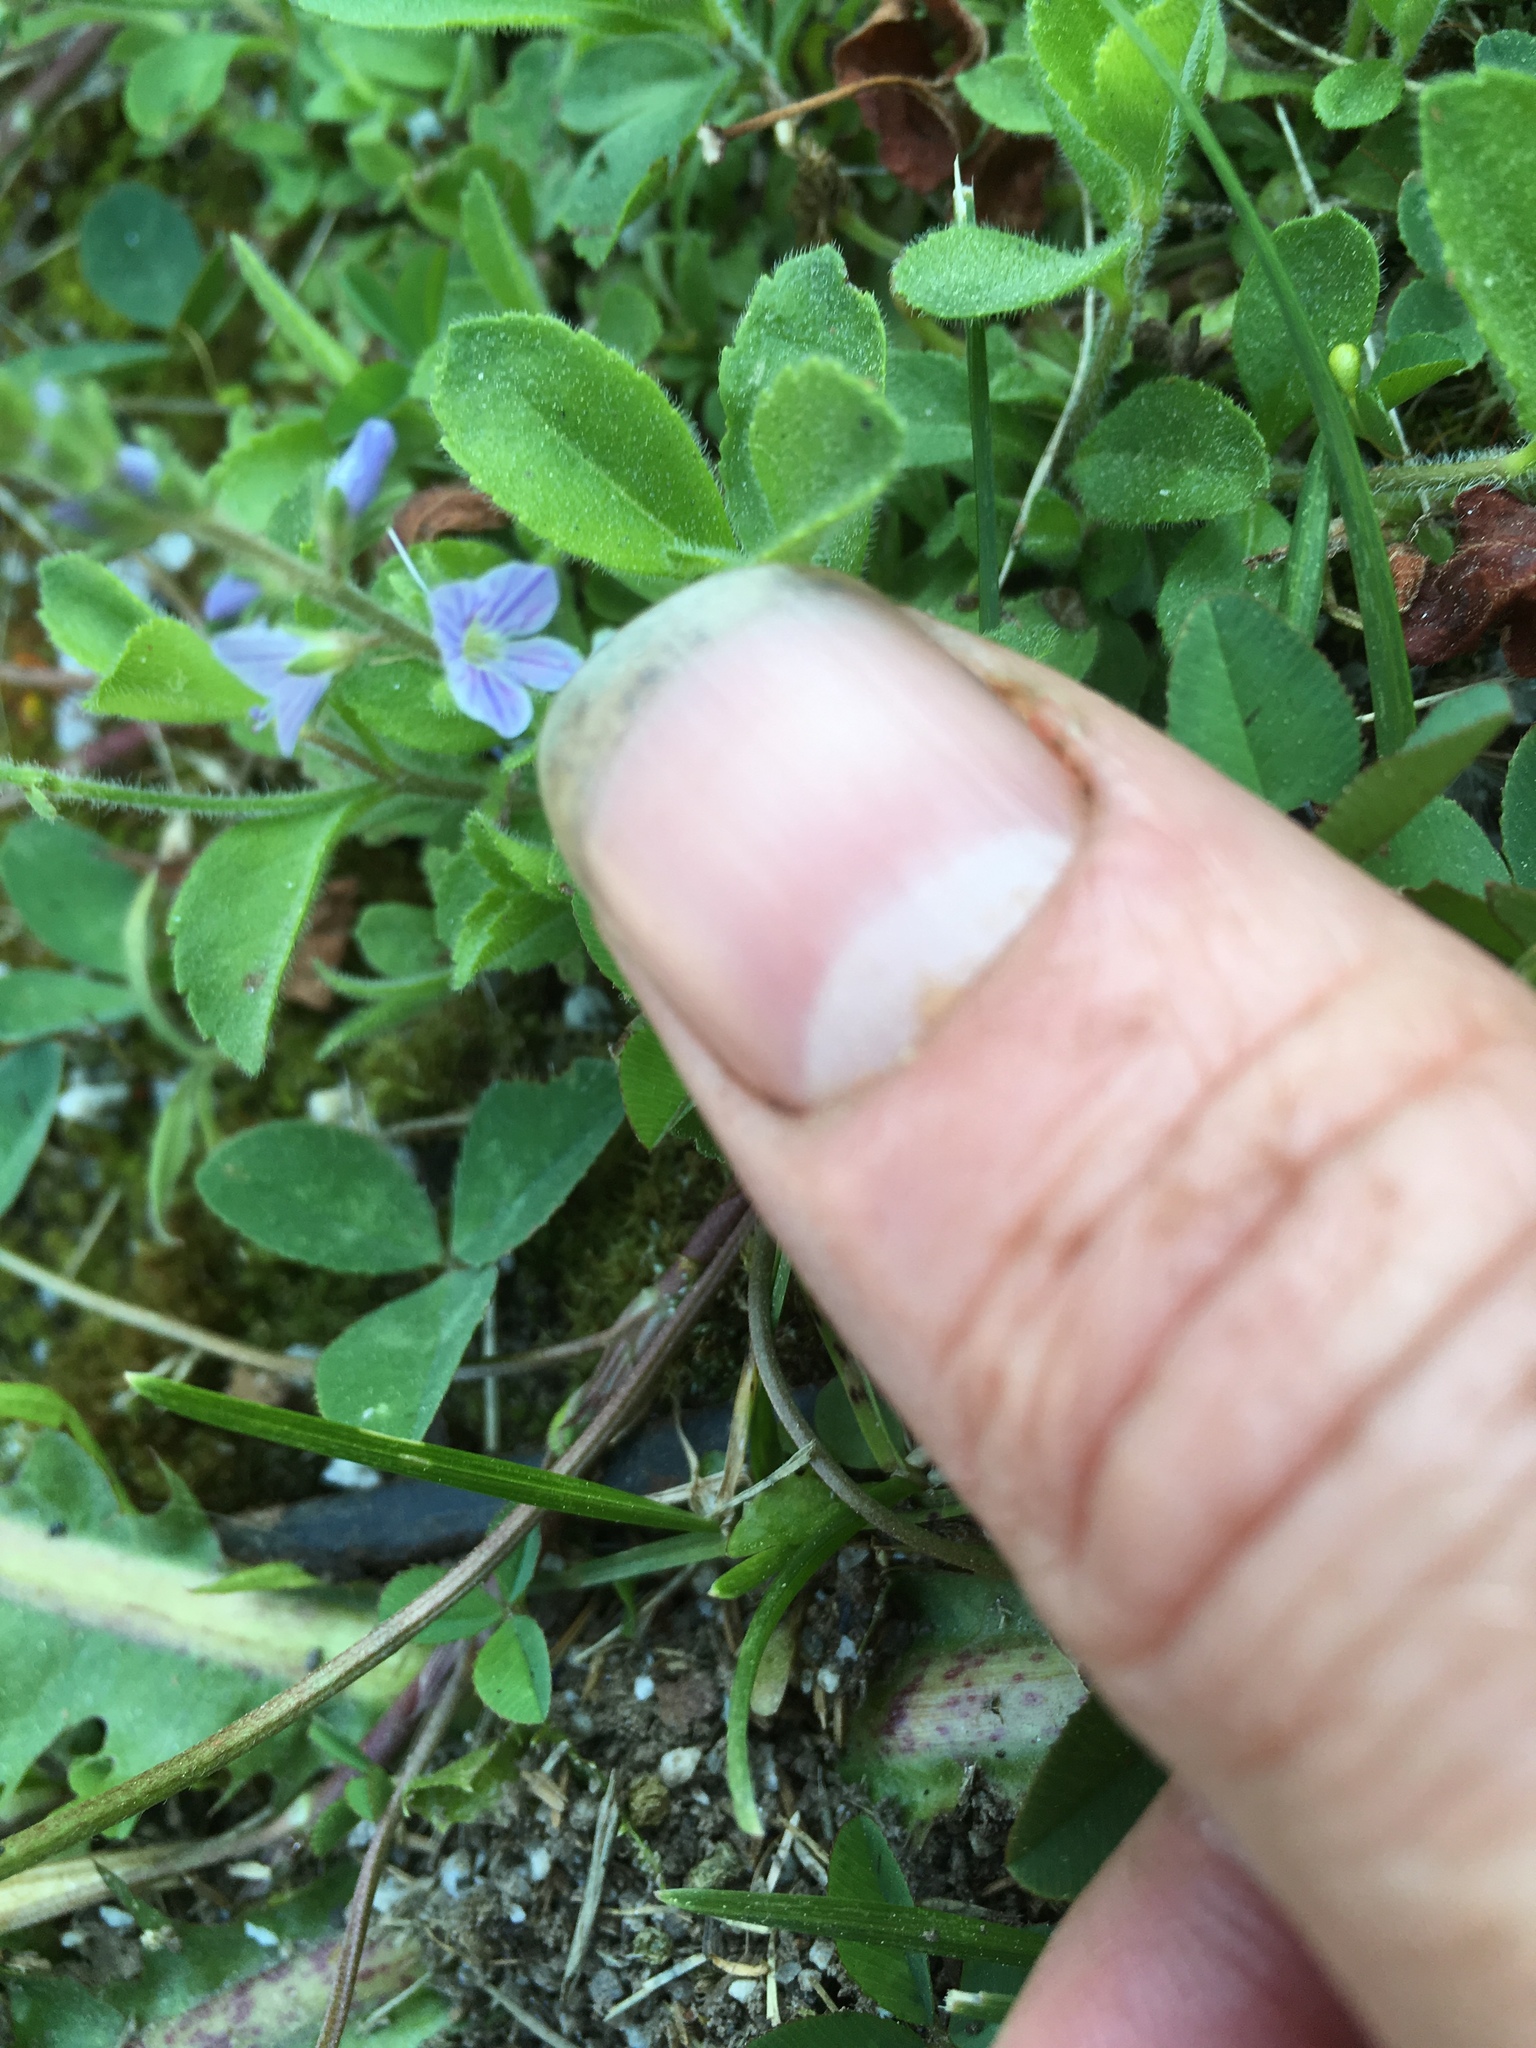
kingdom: Plantae
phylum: Tracheophyta
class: Magnoliopsida
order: Lamiales
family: Plantaginaceae
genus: Veronica
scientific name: Veronica officinalis
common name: Common speedwell
